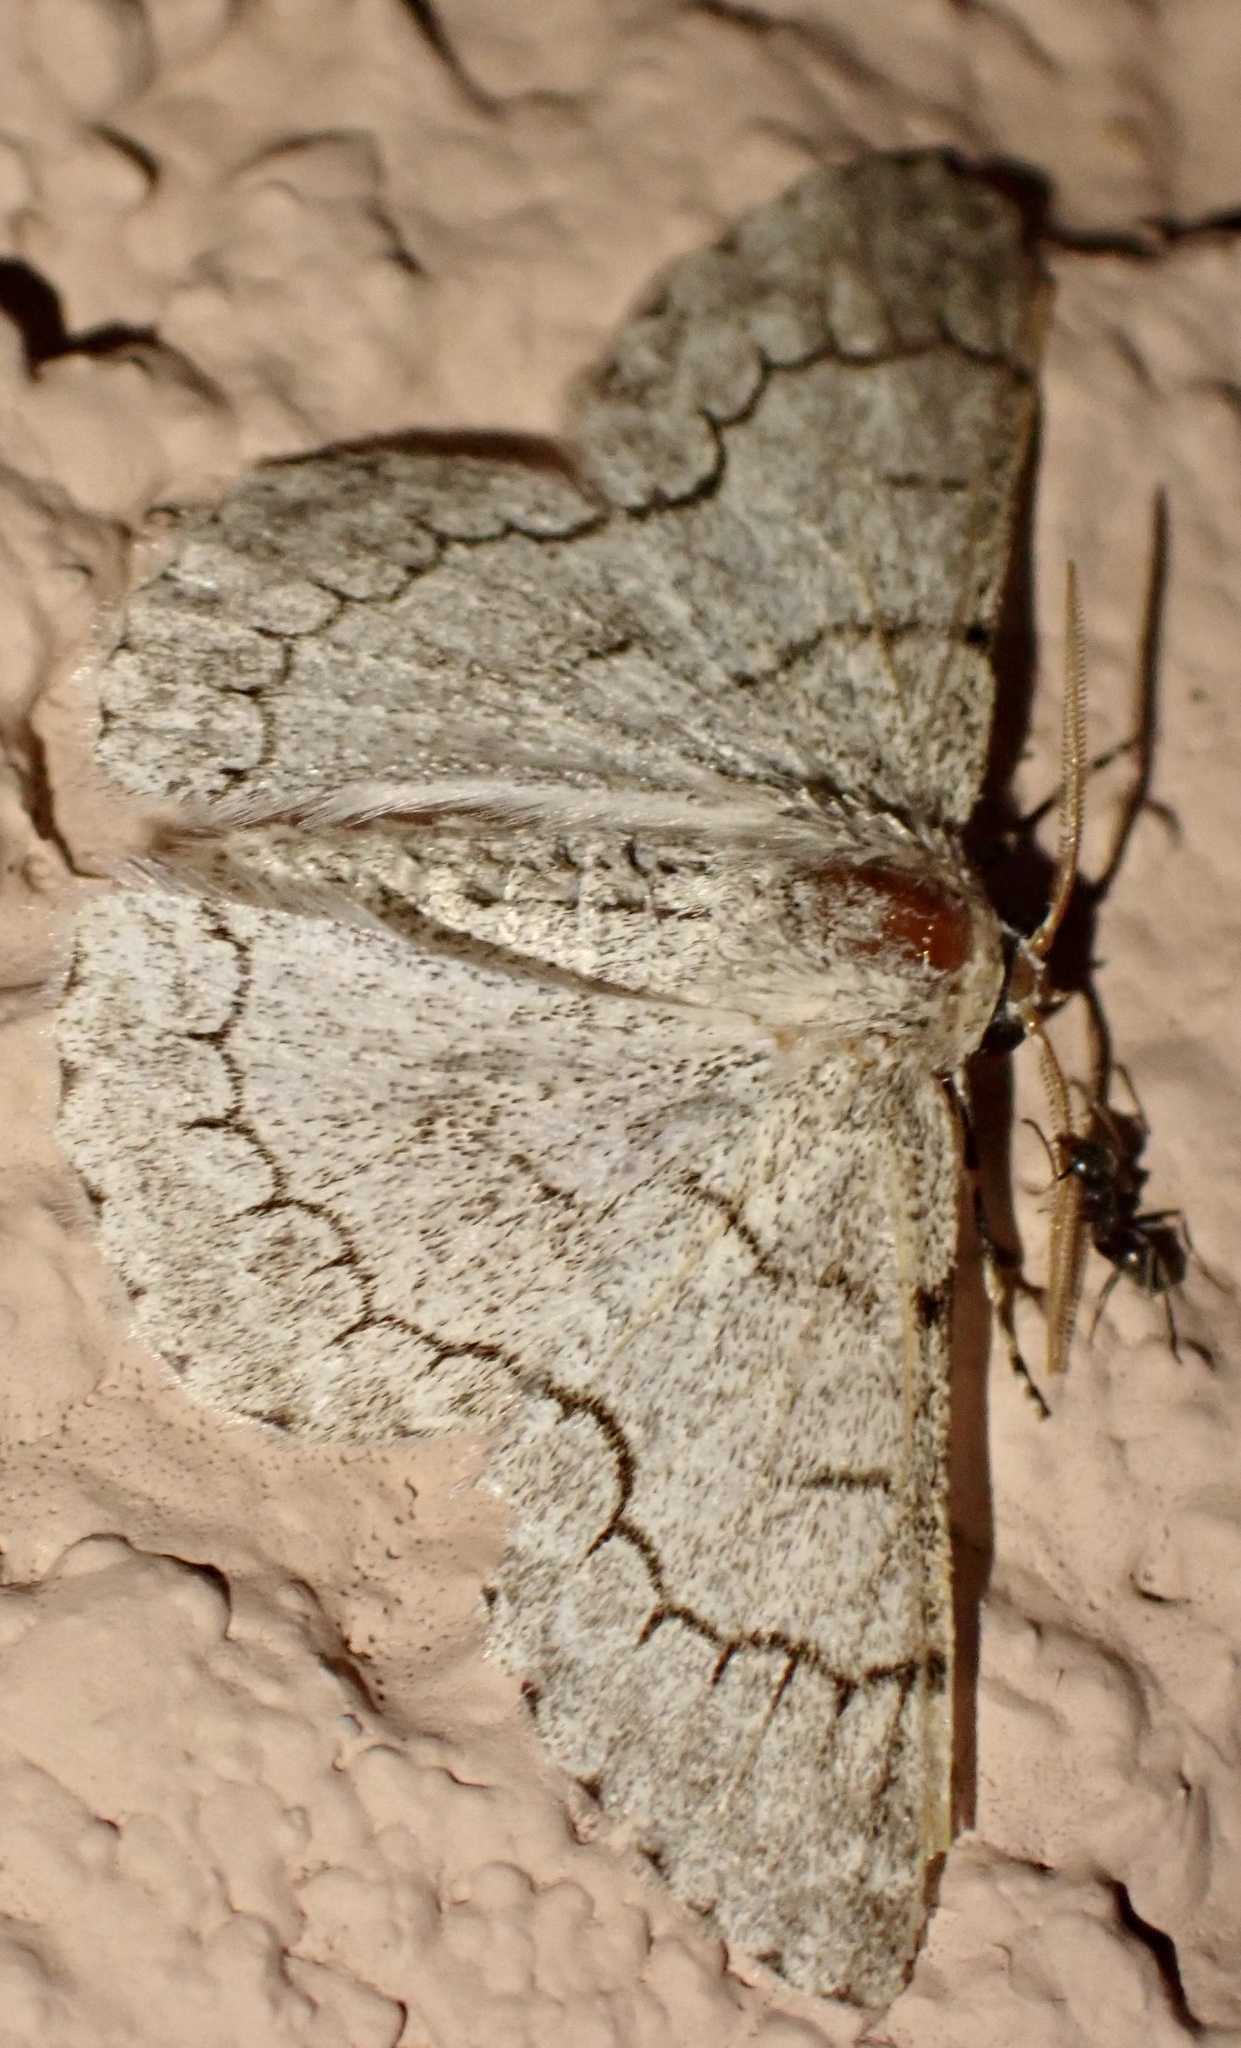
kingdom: Animalia
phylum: Arthropoda
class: Insecta
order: Lepidoptera
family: Geometridae
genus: Pingasa
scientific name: Pingasa lahayei
